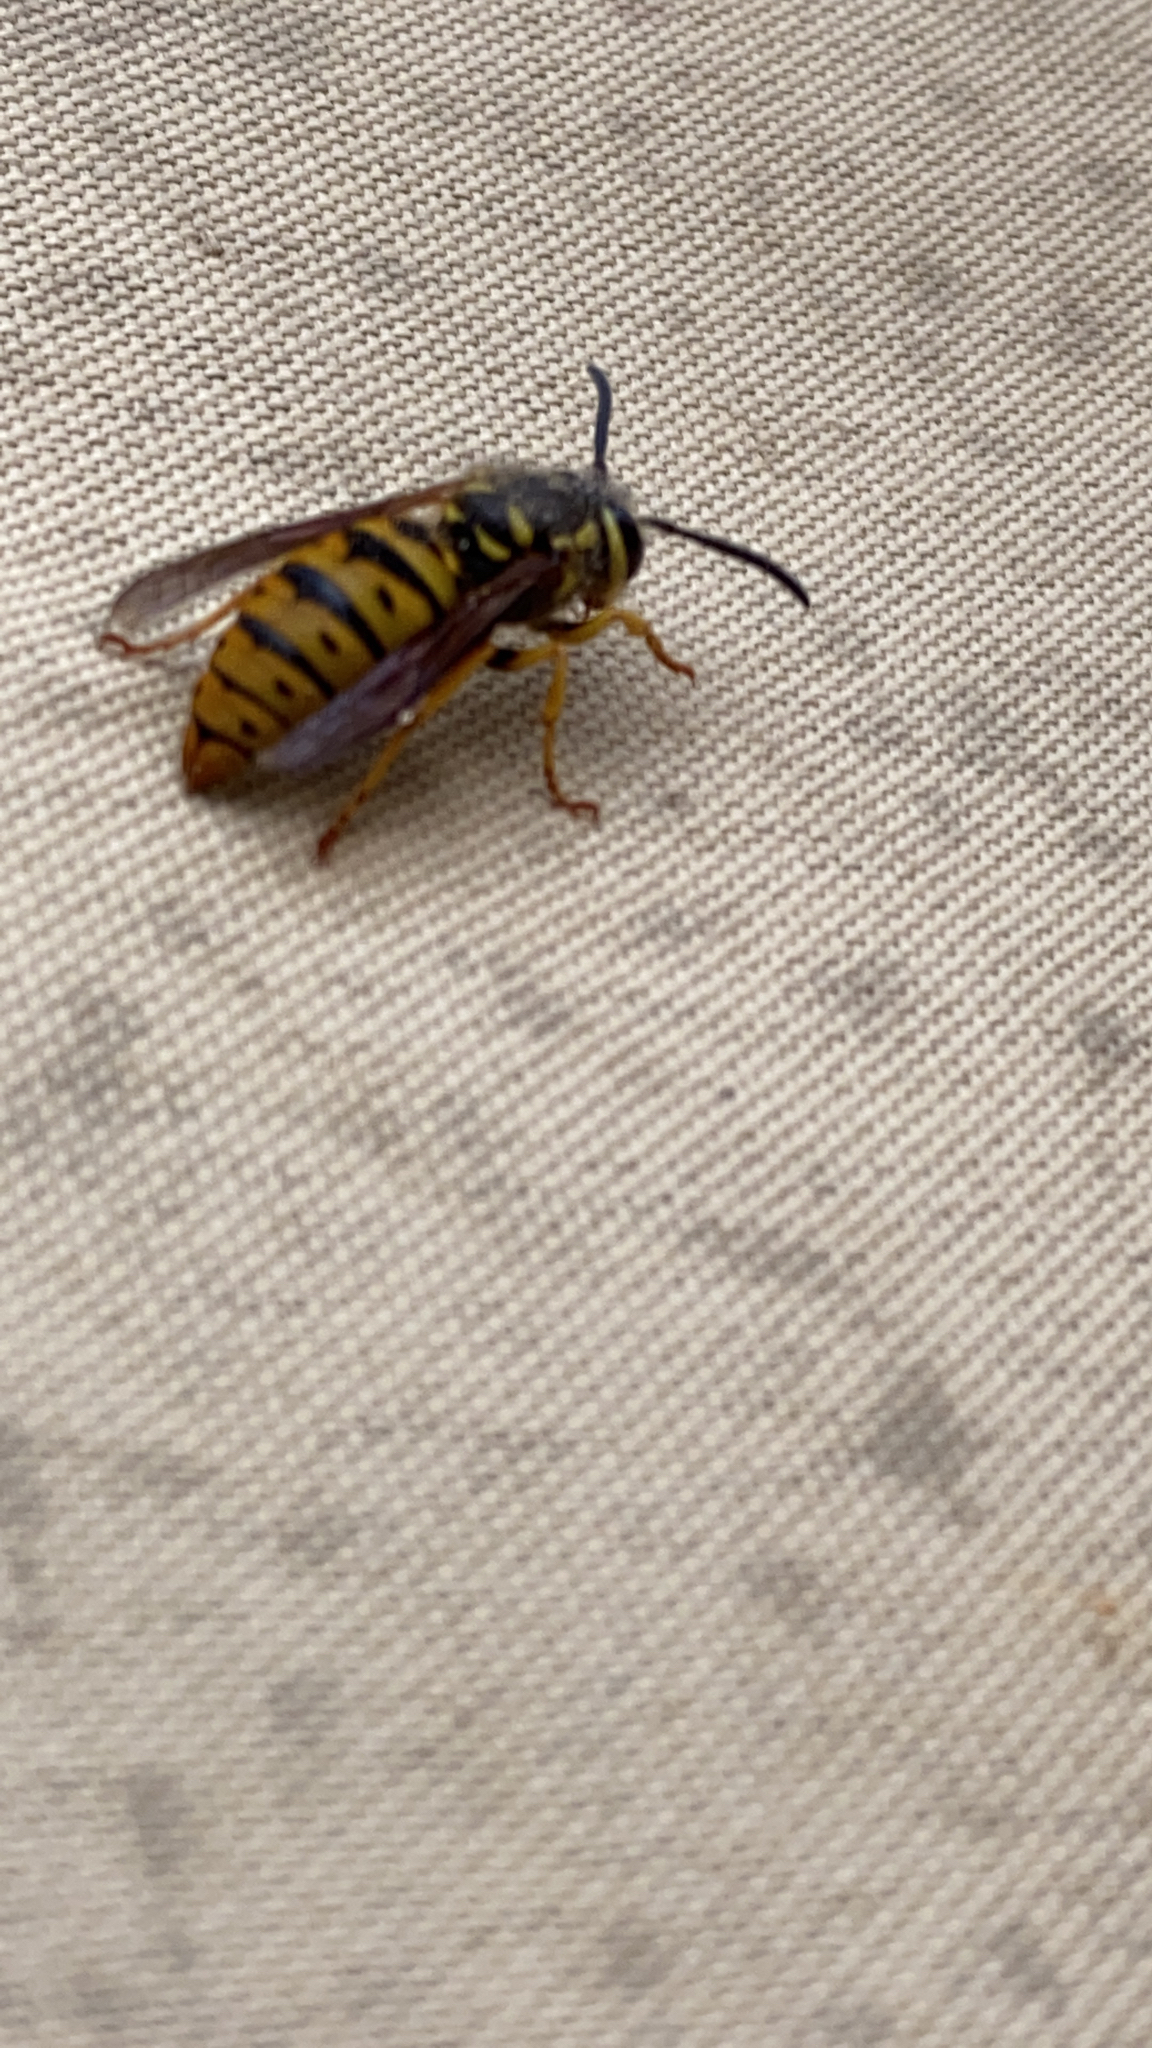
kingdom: Animalia
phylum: Arthropoda
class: Insecta
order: Hymenoptera
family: Vespidae
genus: Vespula
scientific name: Vespula maculifrons
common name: Eastern yellowjacket
